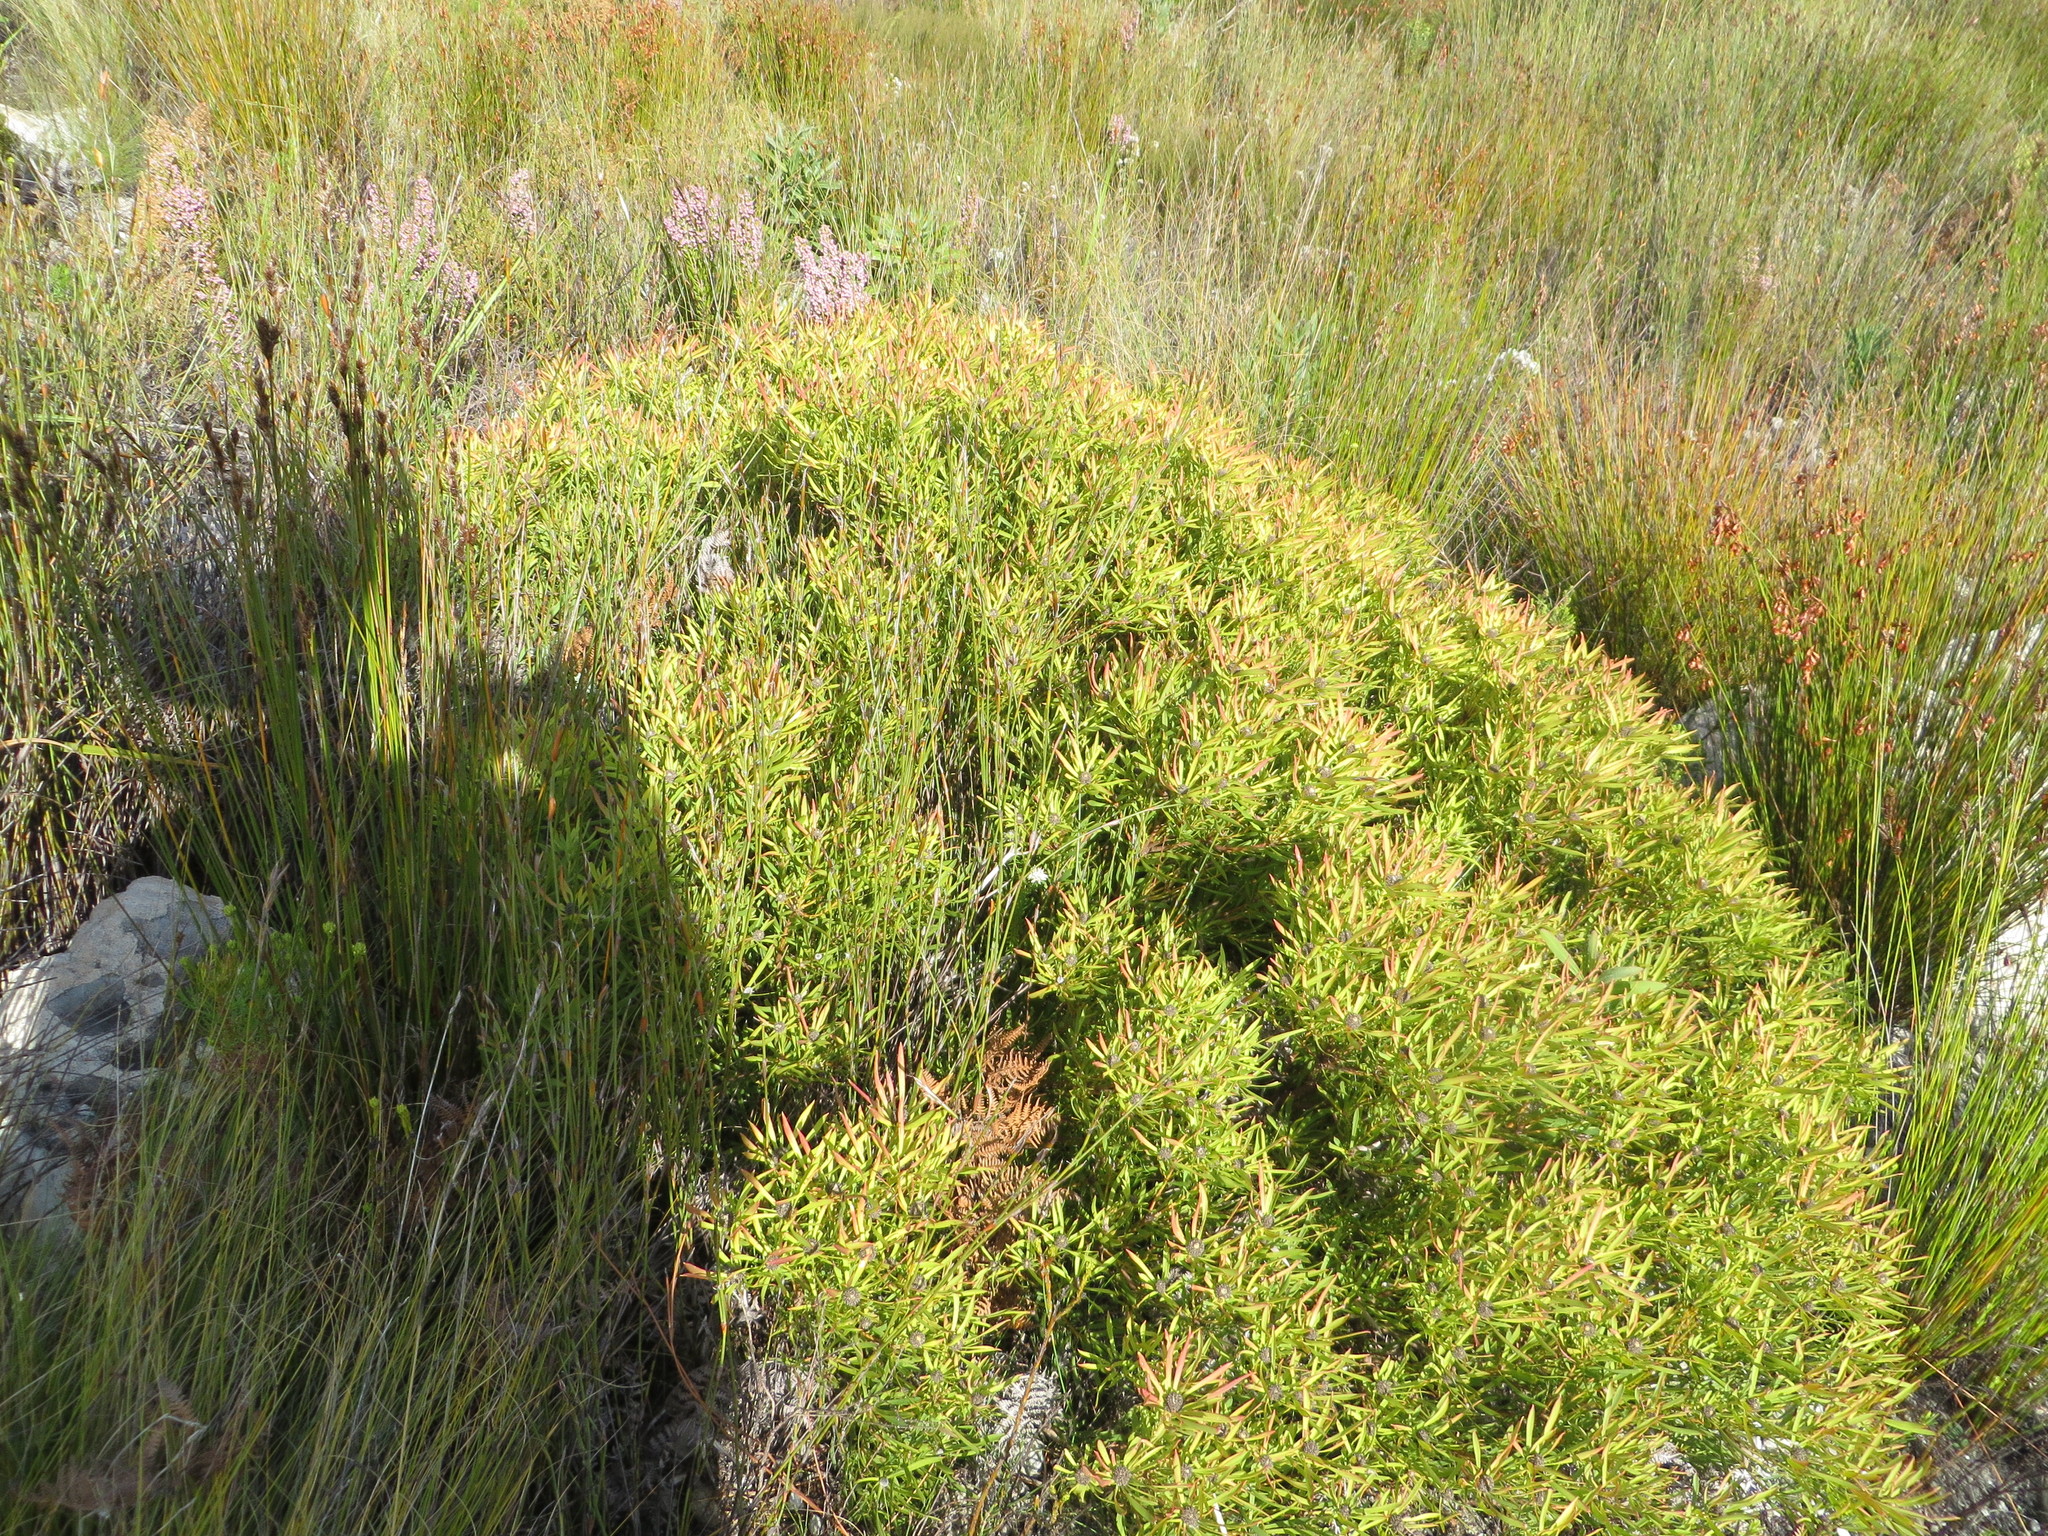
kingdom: Plantae
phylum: Tracheophyta
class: Magnoliopsida
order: Proteales
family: Proteaceae
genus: Leucadendron
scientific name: Leucadendron salignum
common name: Common sunshine conebush
